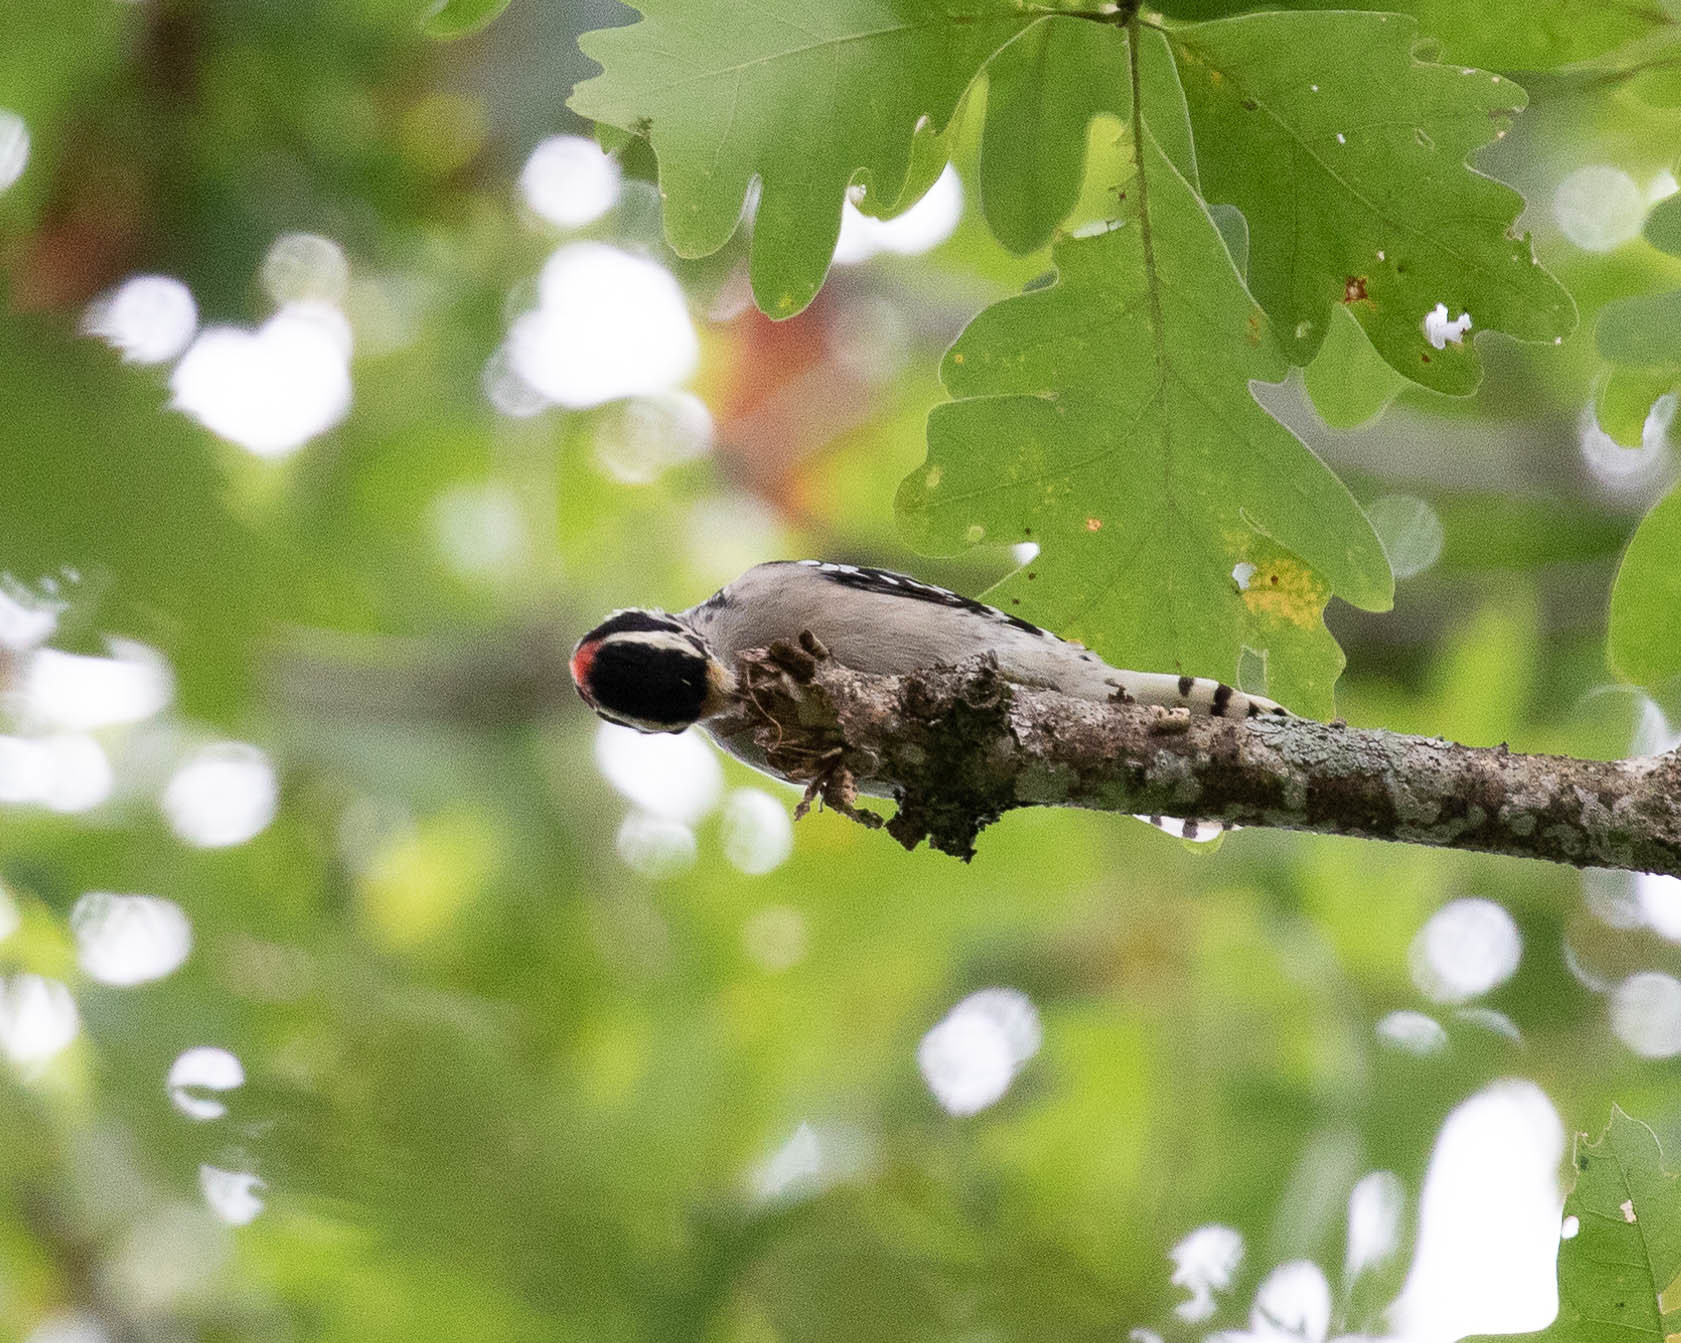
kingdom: Animalia
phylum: Chordata
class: Aves
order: Piciformes
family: Picidae
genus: Dryobates
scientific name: Dryobates pubescens
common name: Downy woodpecker
